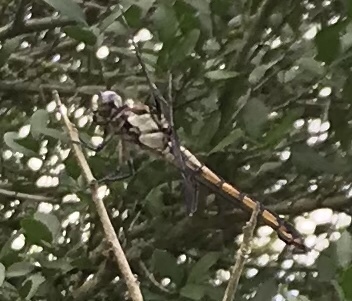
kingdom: Animalia
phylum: Arthropoda
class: Insecta
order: Odonata
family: Libellulidae
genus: Libellula
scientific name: Libellula vibrans
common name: Great blue skimmer
